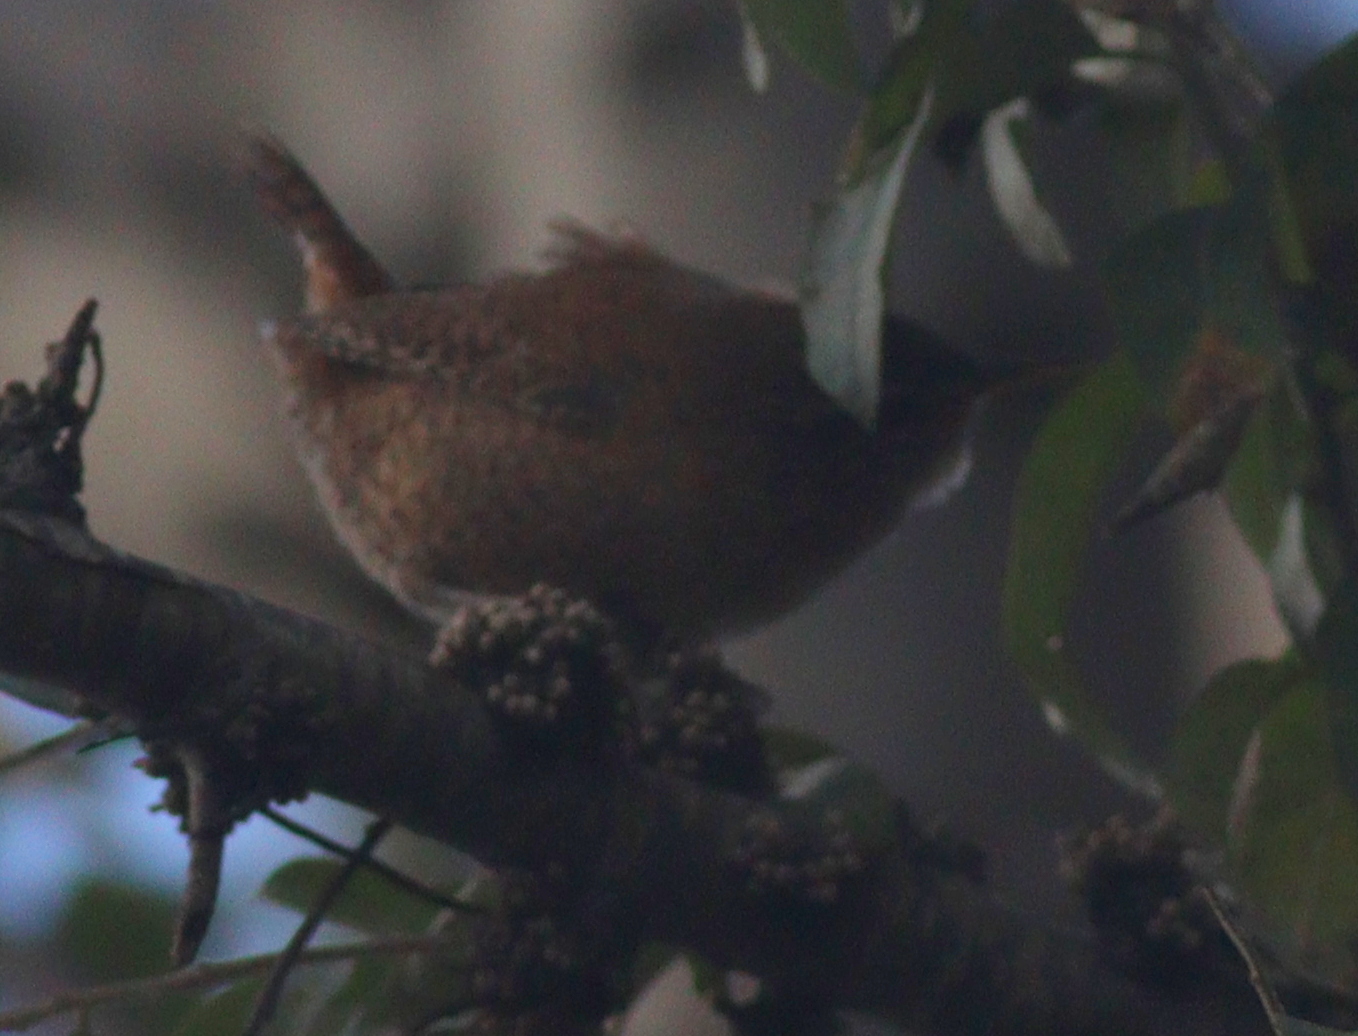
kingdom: Animalia
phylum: Chordata
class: Aves
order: Passeriformes
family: Troglodytidae
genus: Troglodytes
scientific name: Troglodytes troglodytes
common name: Eurasian wren
